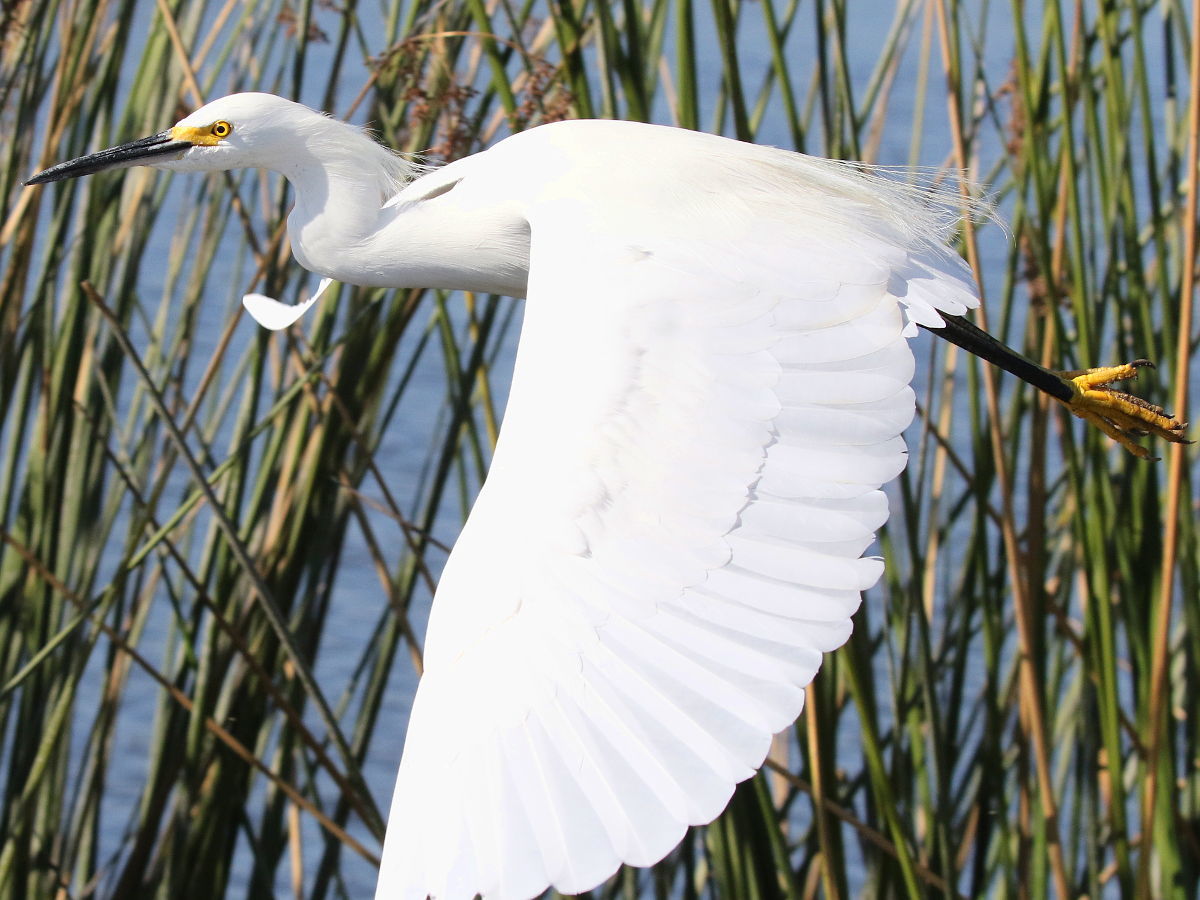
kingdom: Animalia
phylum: Chordata
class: Aves
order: Pelecaniformes
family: Ardeidae
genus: Egretta
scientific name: Egretta thula
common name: Snowy egret
